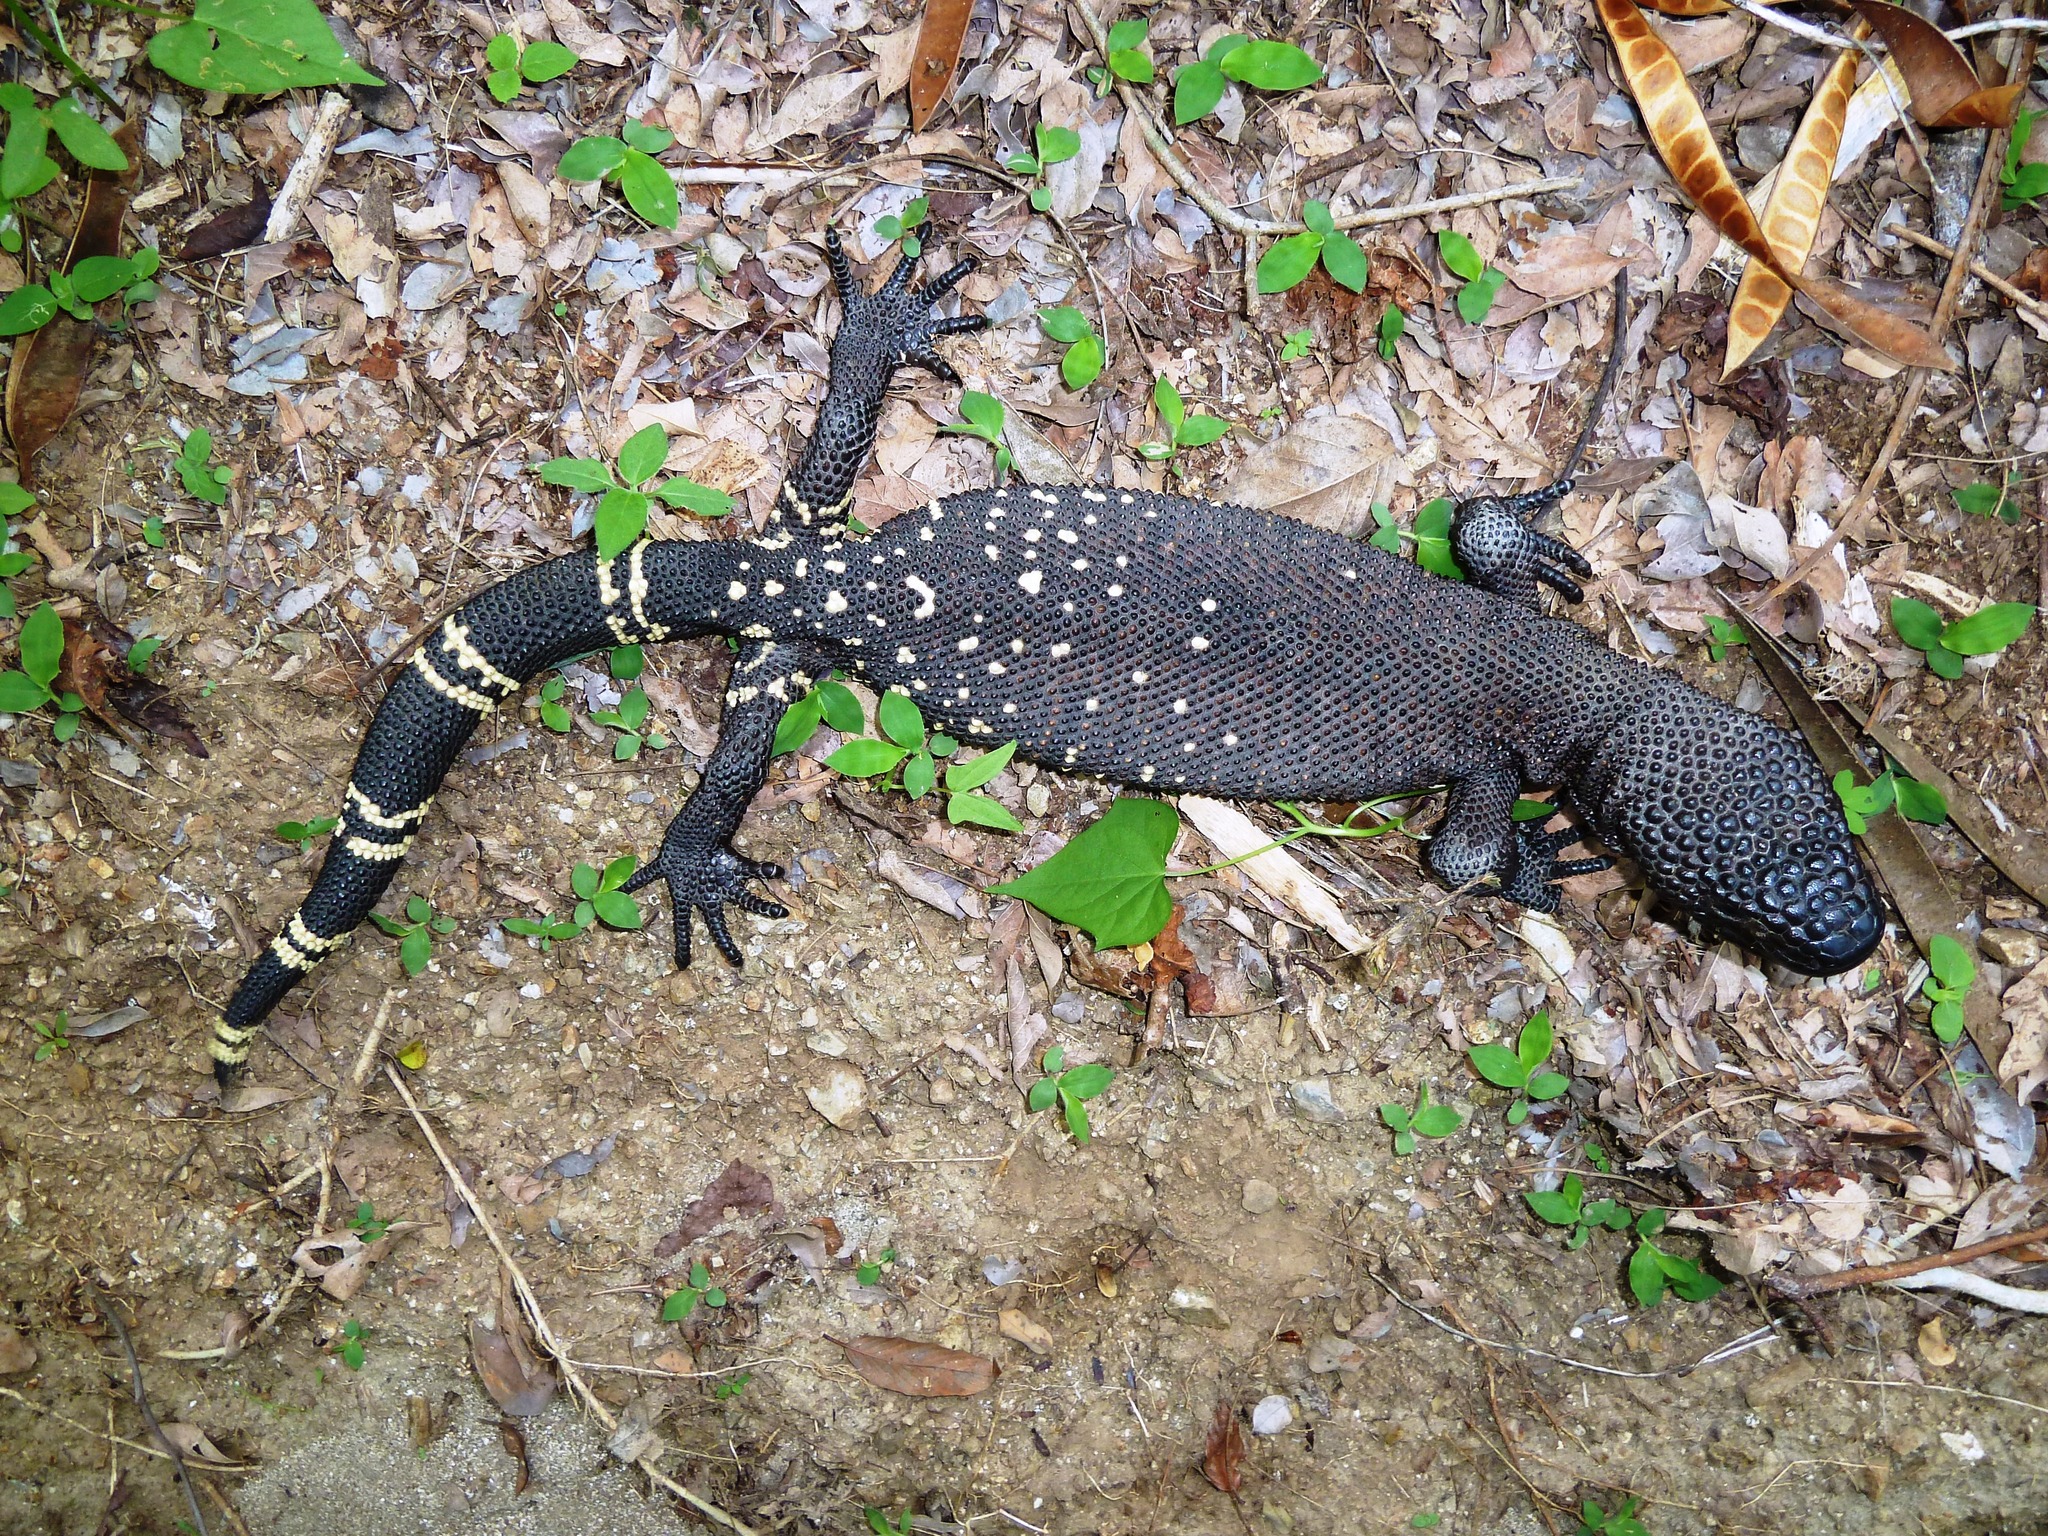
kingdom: Animalia
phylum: Chordata
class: Squamata
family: Helodermatidae
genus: Heloderma
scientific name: Heloderma charlesbogerti
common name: Guatemala beaded lizard
